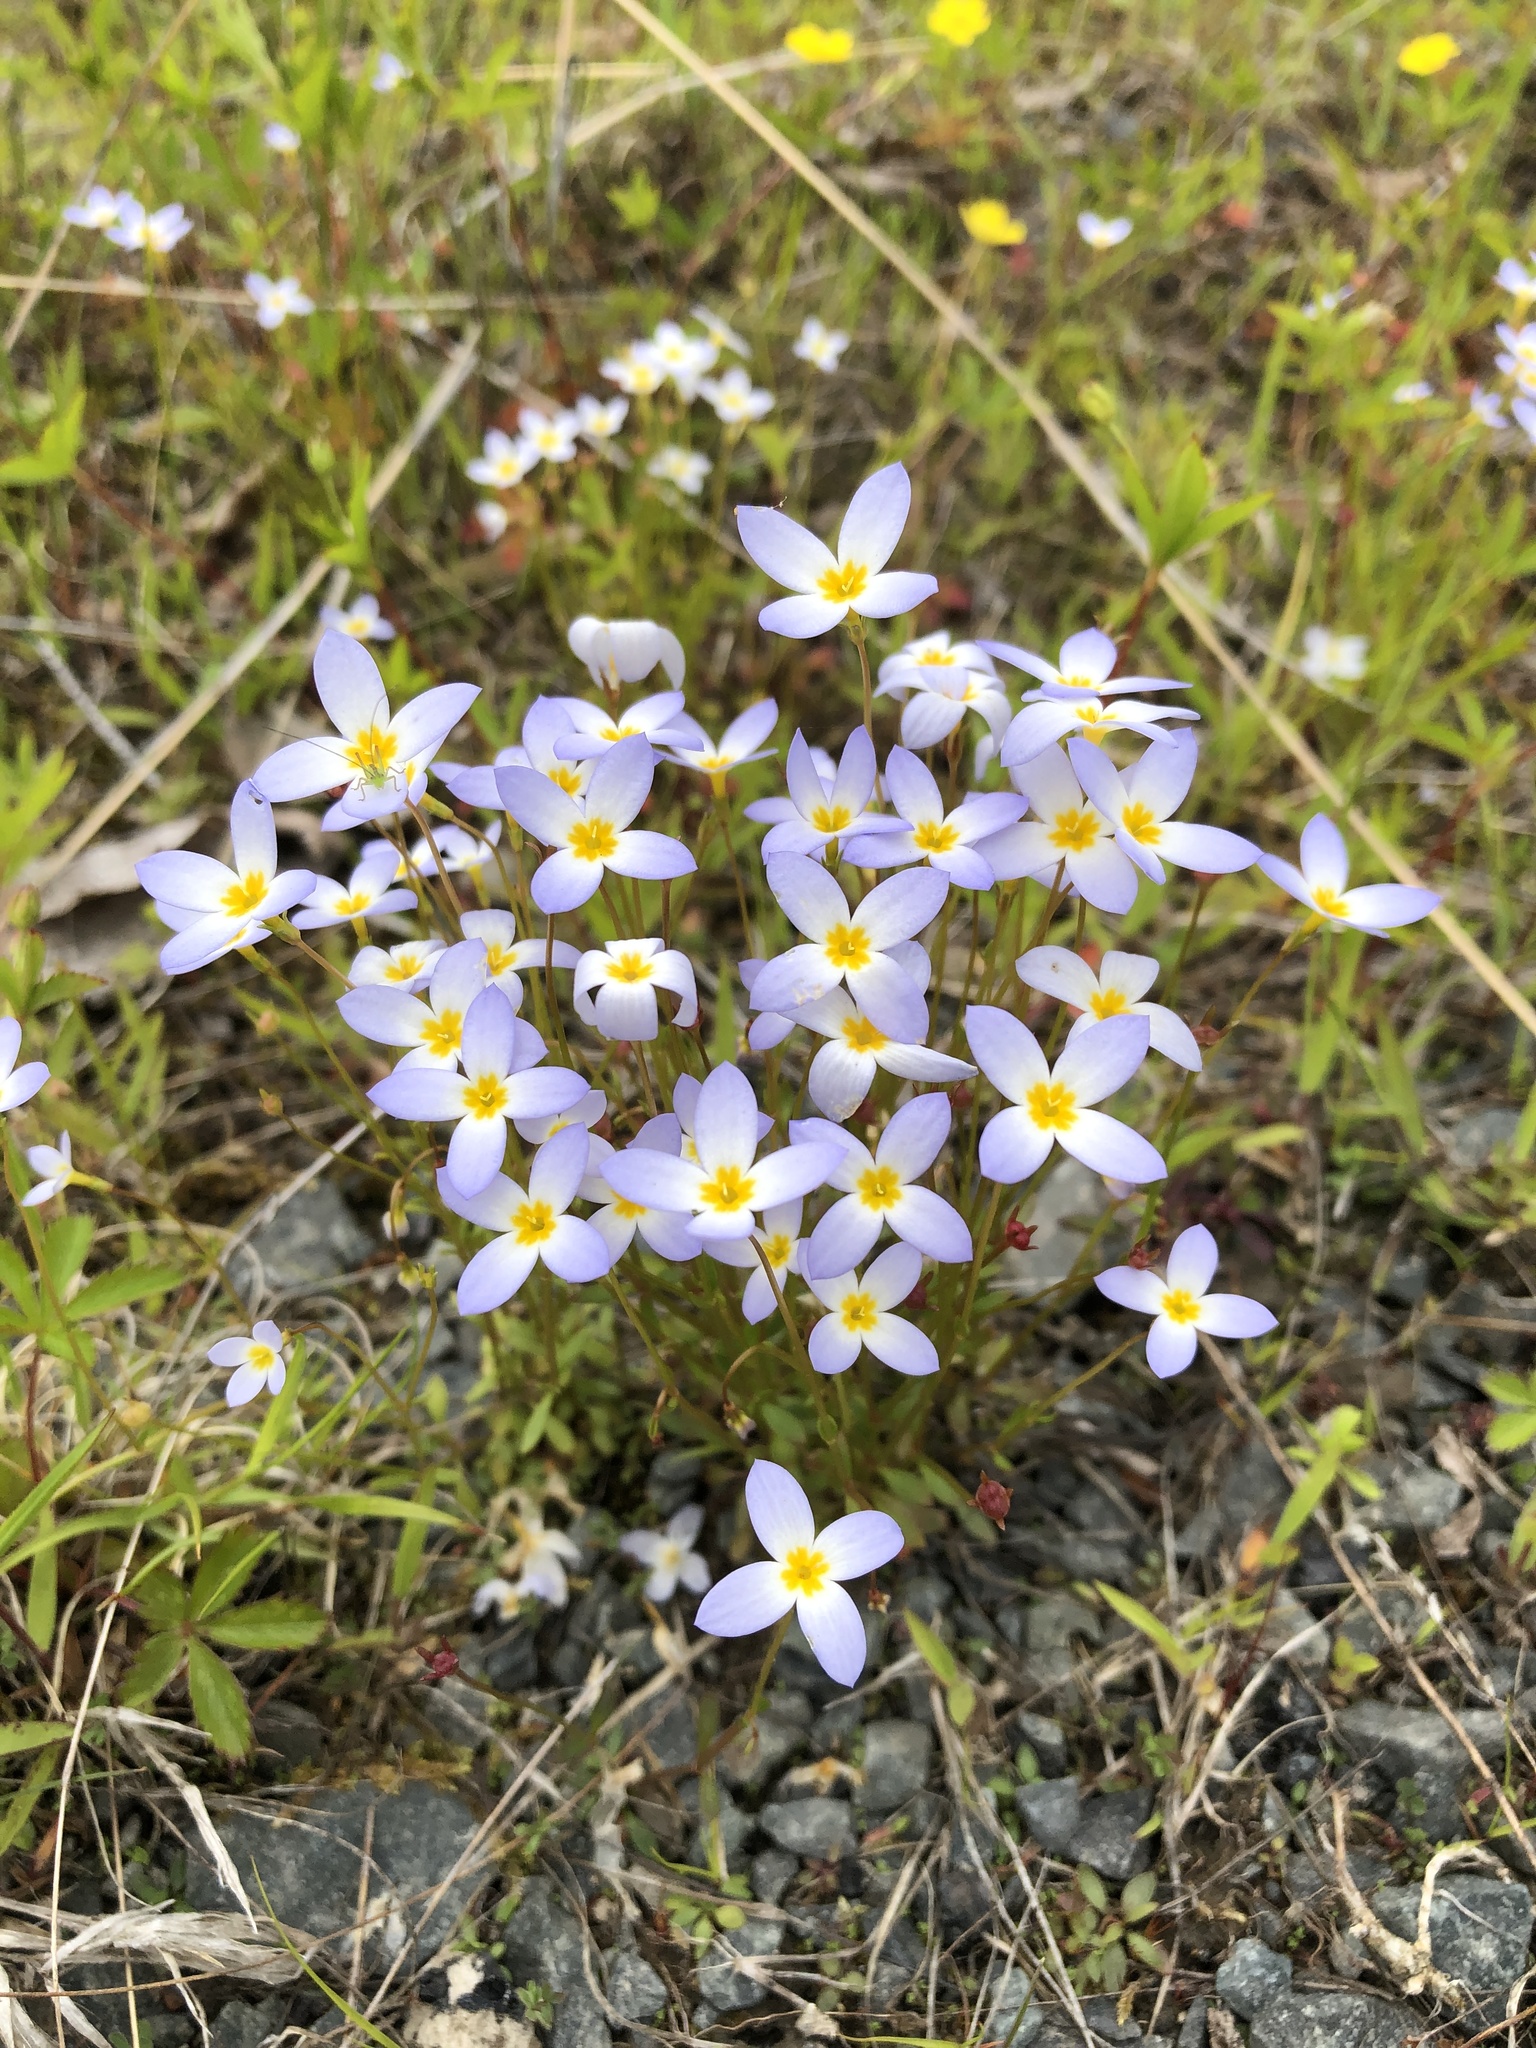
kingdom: Plantae
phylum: Tracheophyta
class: Magnoliopsida
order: Gentianales
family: Rubiaceae
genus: Houstonia
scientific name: Houstonia caerulea
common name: Bluets
